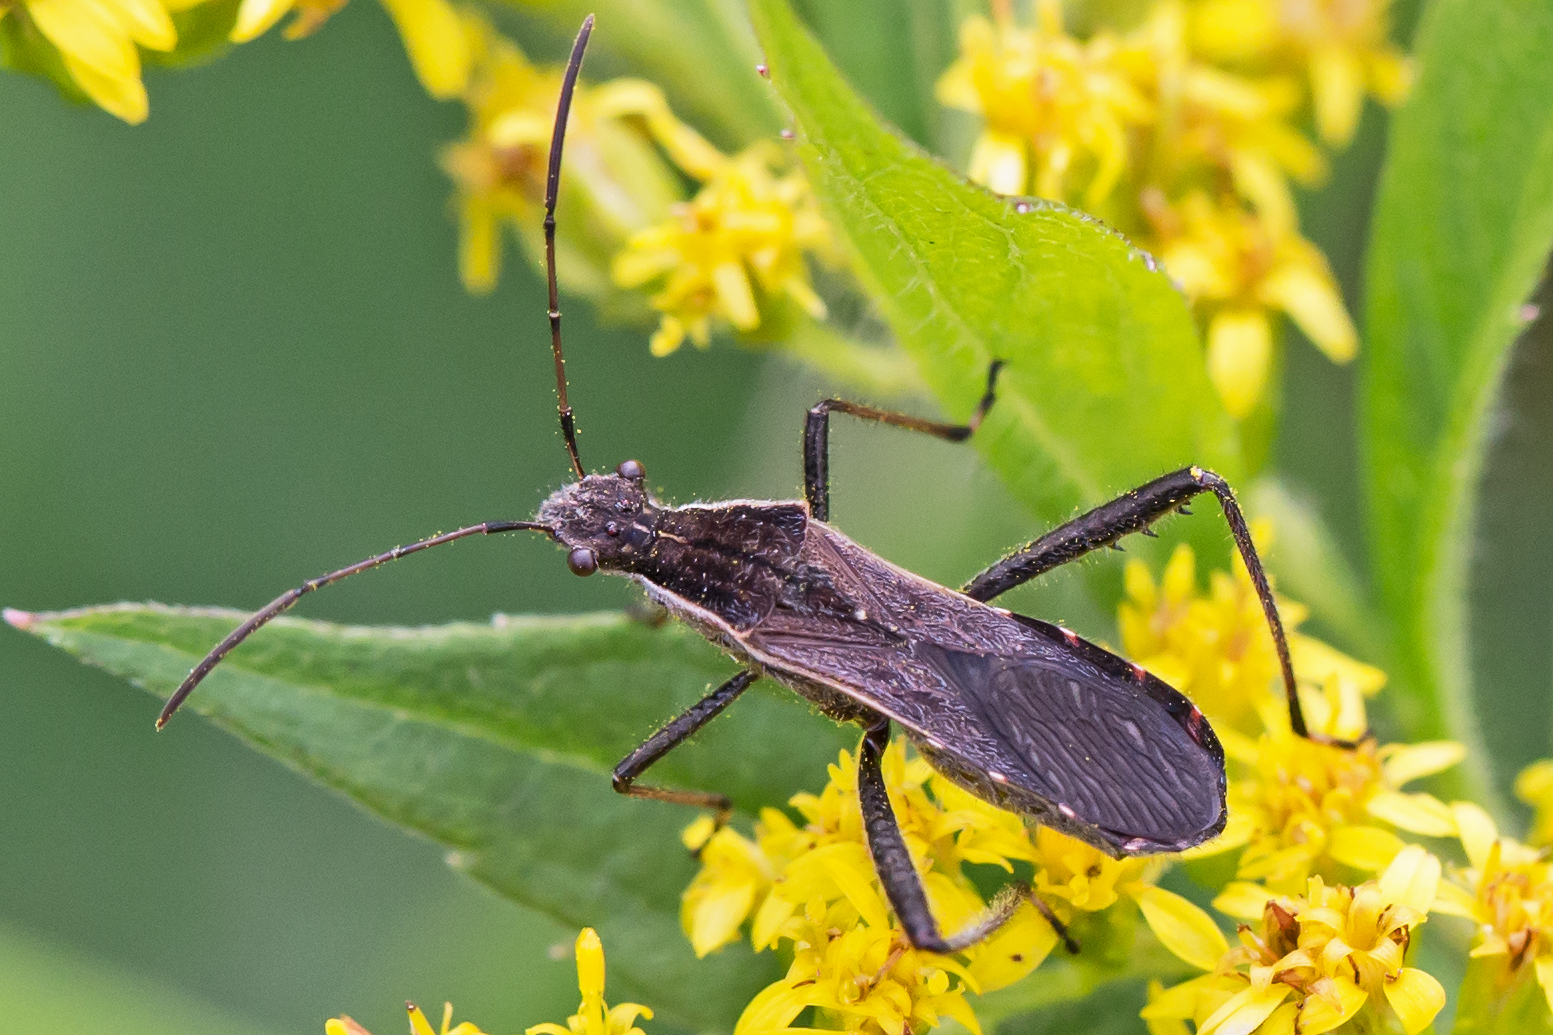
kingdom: Animalia
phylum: Arthropoda
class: Insecta
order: Hemiptera
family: Alydidae
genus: Alydus
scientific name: Alydus pilosulus
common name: Broad-headed bug
